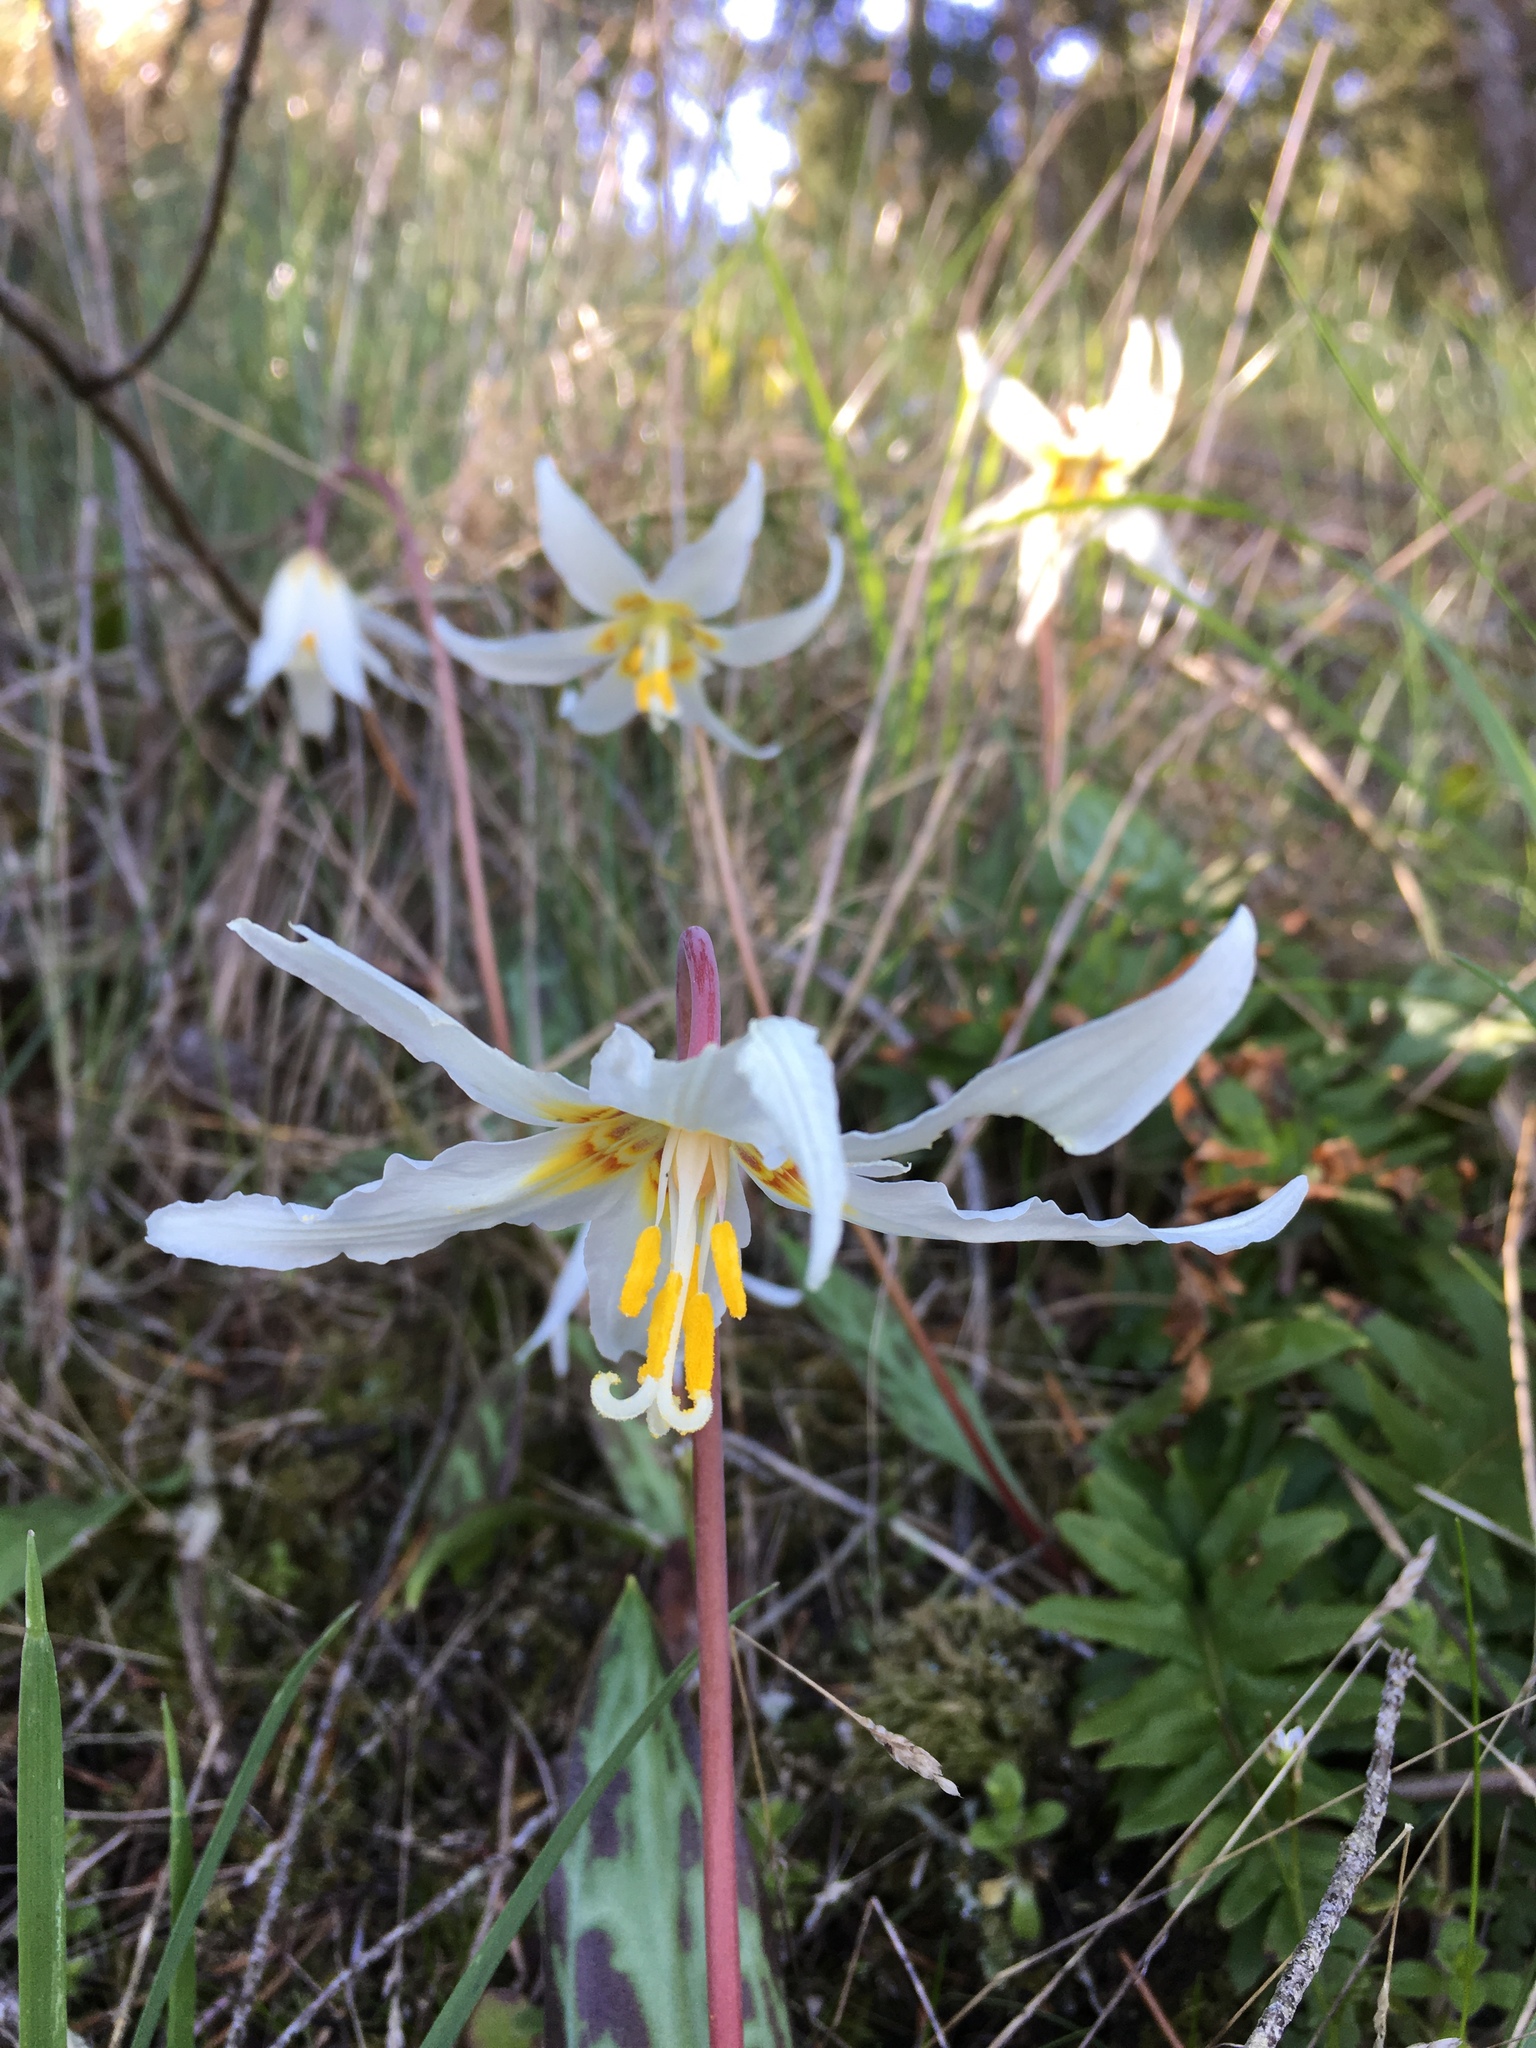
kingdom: Plantae
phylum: Tracheophyta
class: Liliopsida
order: Liliales
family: Liliaceae
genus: Erythronium
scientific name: Erythronium oregonum
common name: Giant adder's-tongue
